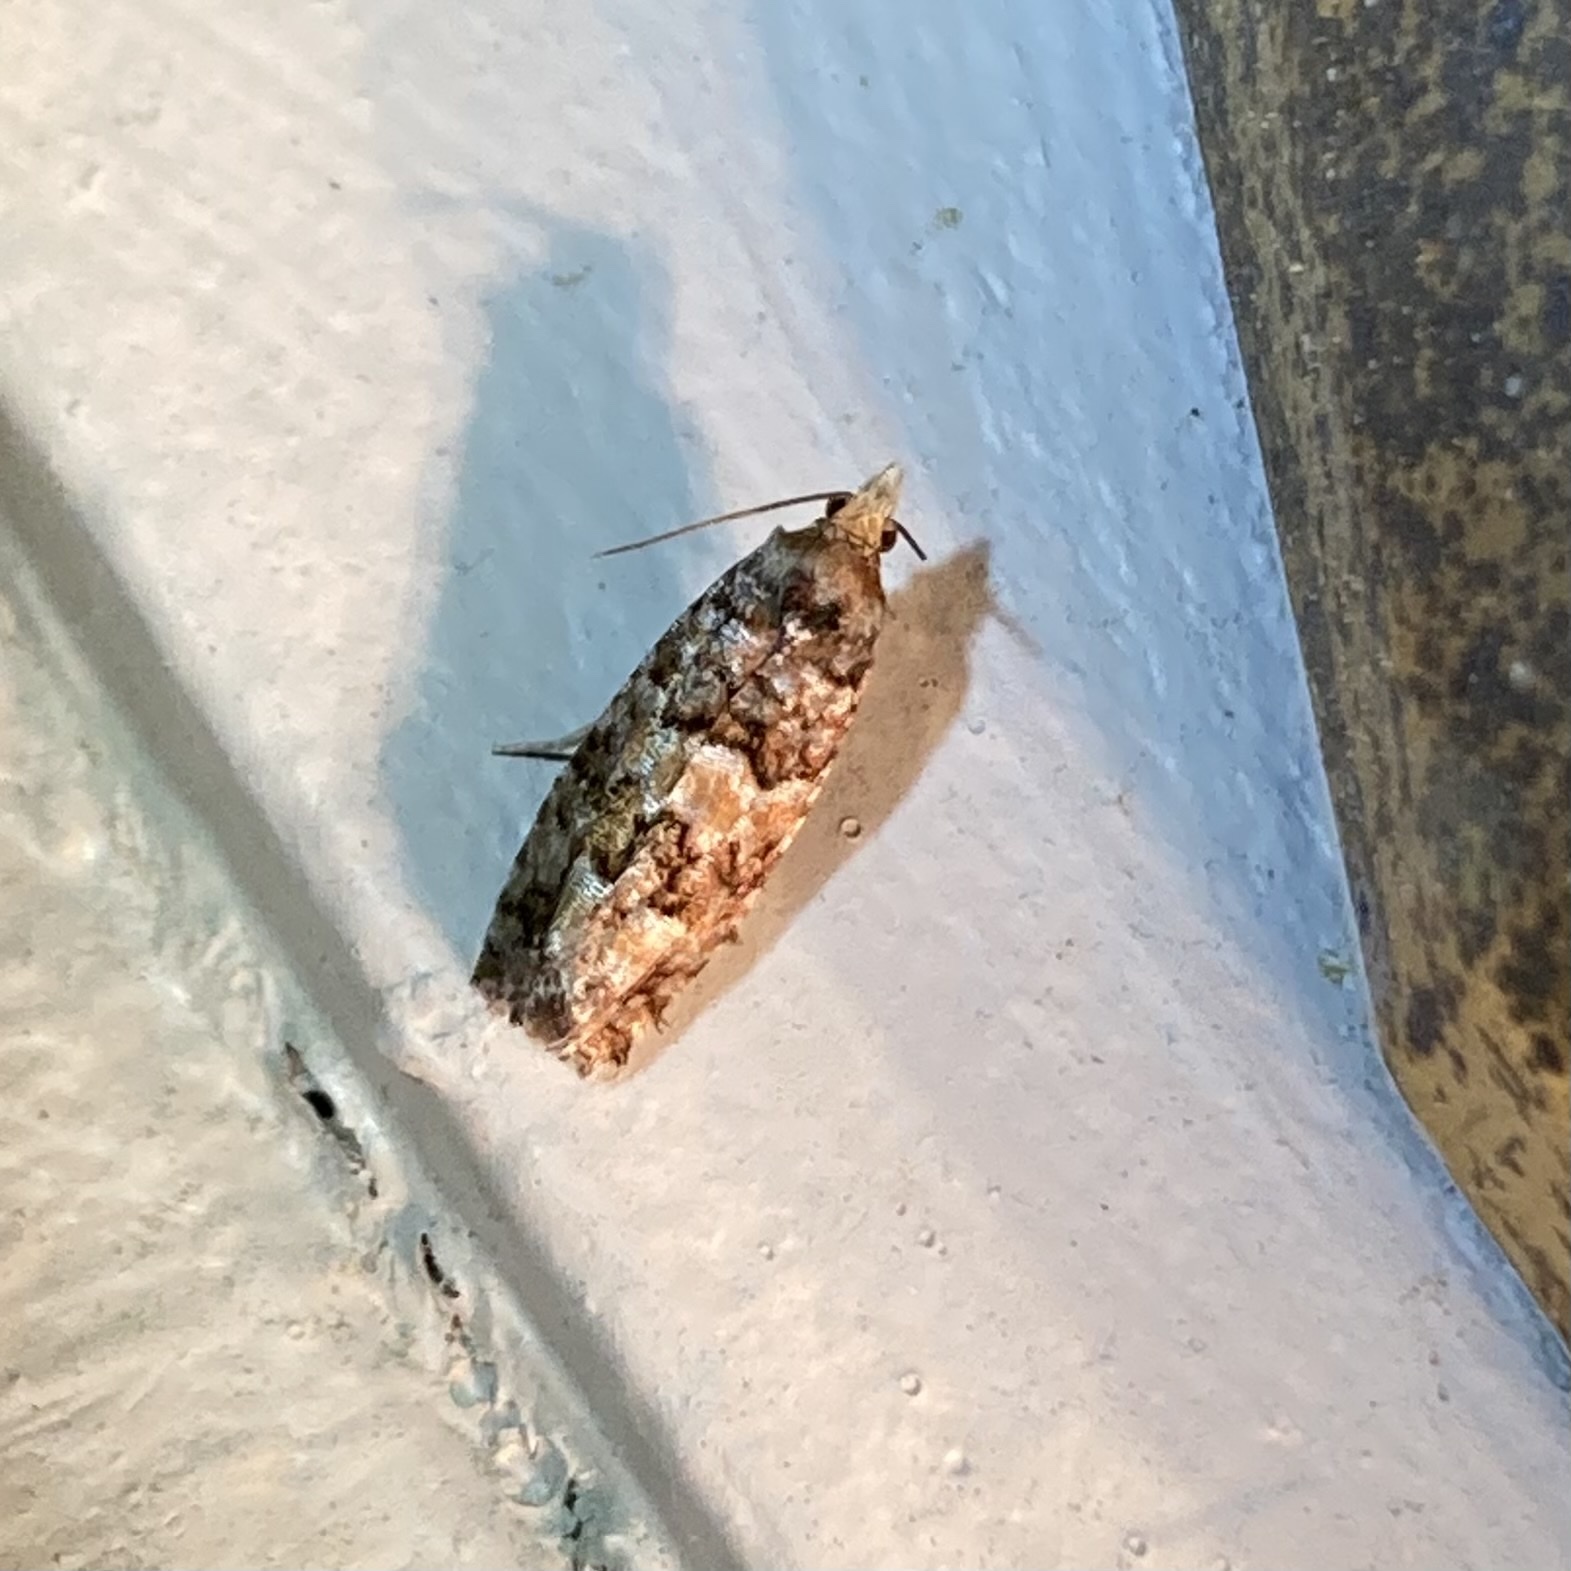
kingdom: Animalia
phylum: Arthropoda
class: Insecta
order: Lepidoptera
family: Tortricidae
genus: Eucopina
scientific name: Eucopina tocullionana
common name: White pinecone borer moth
